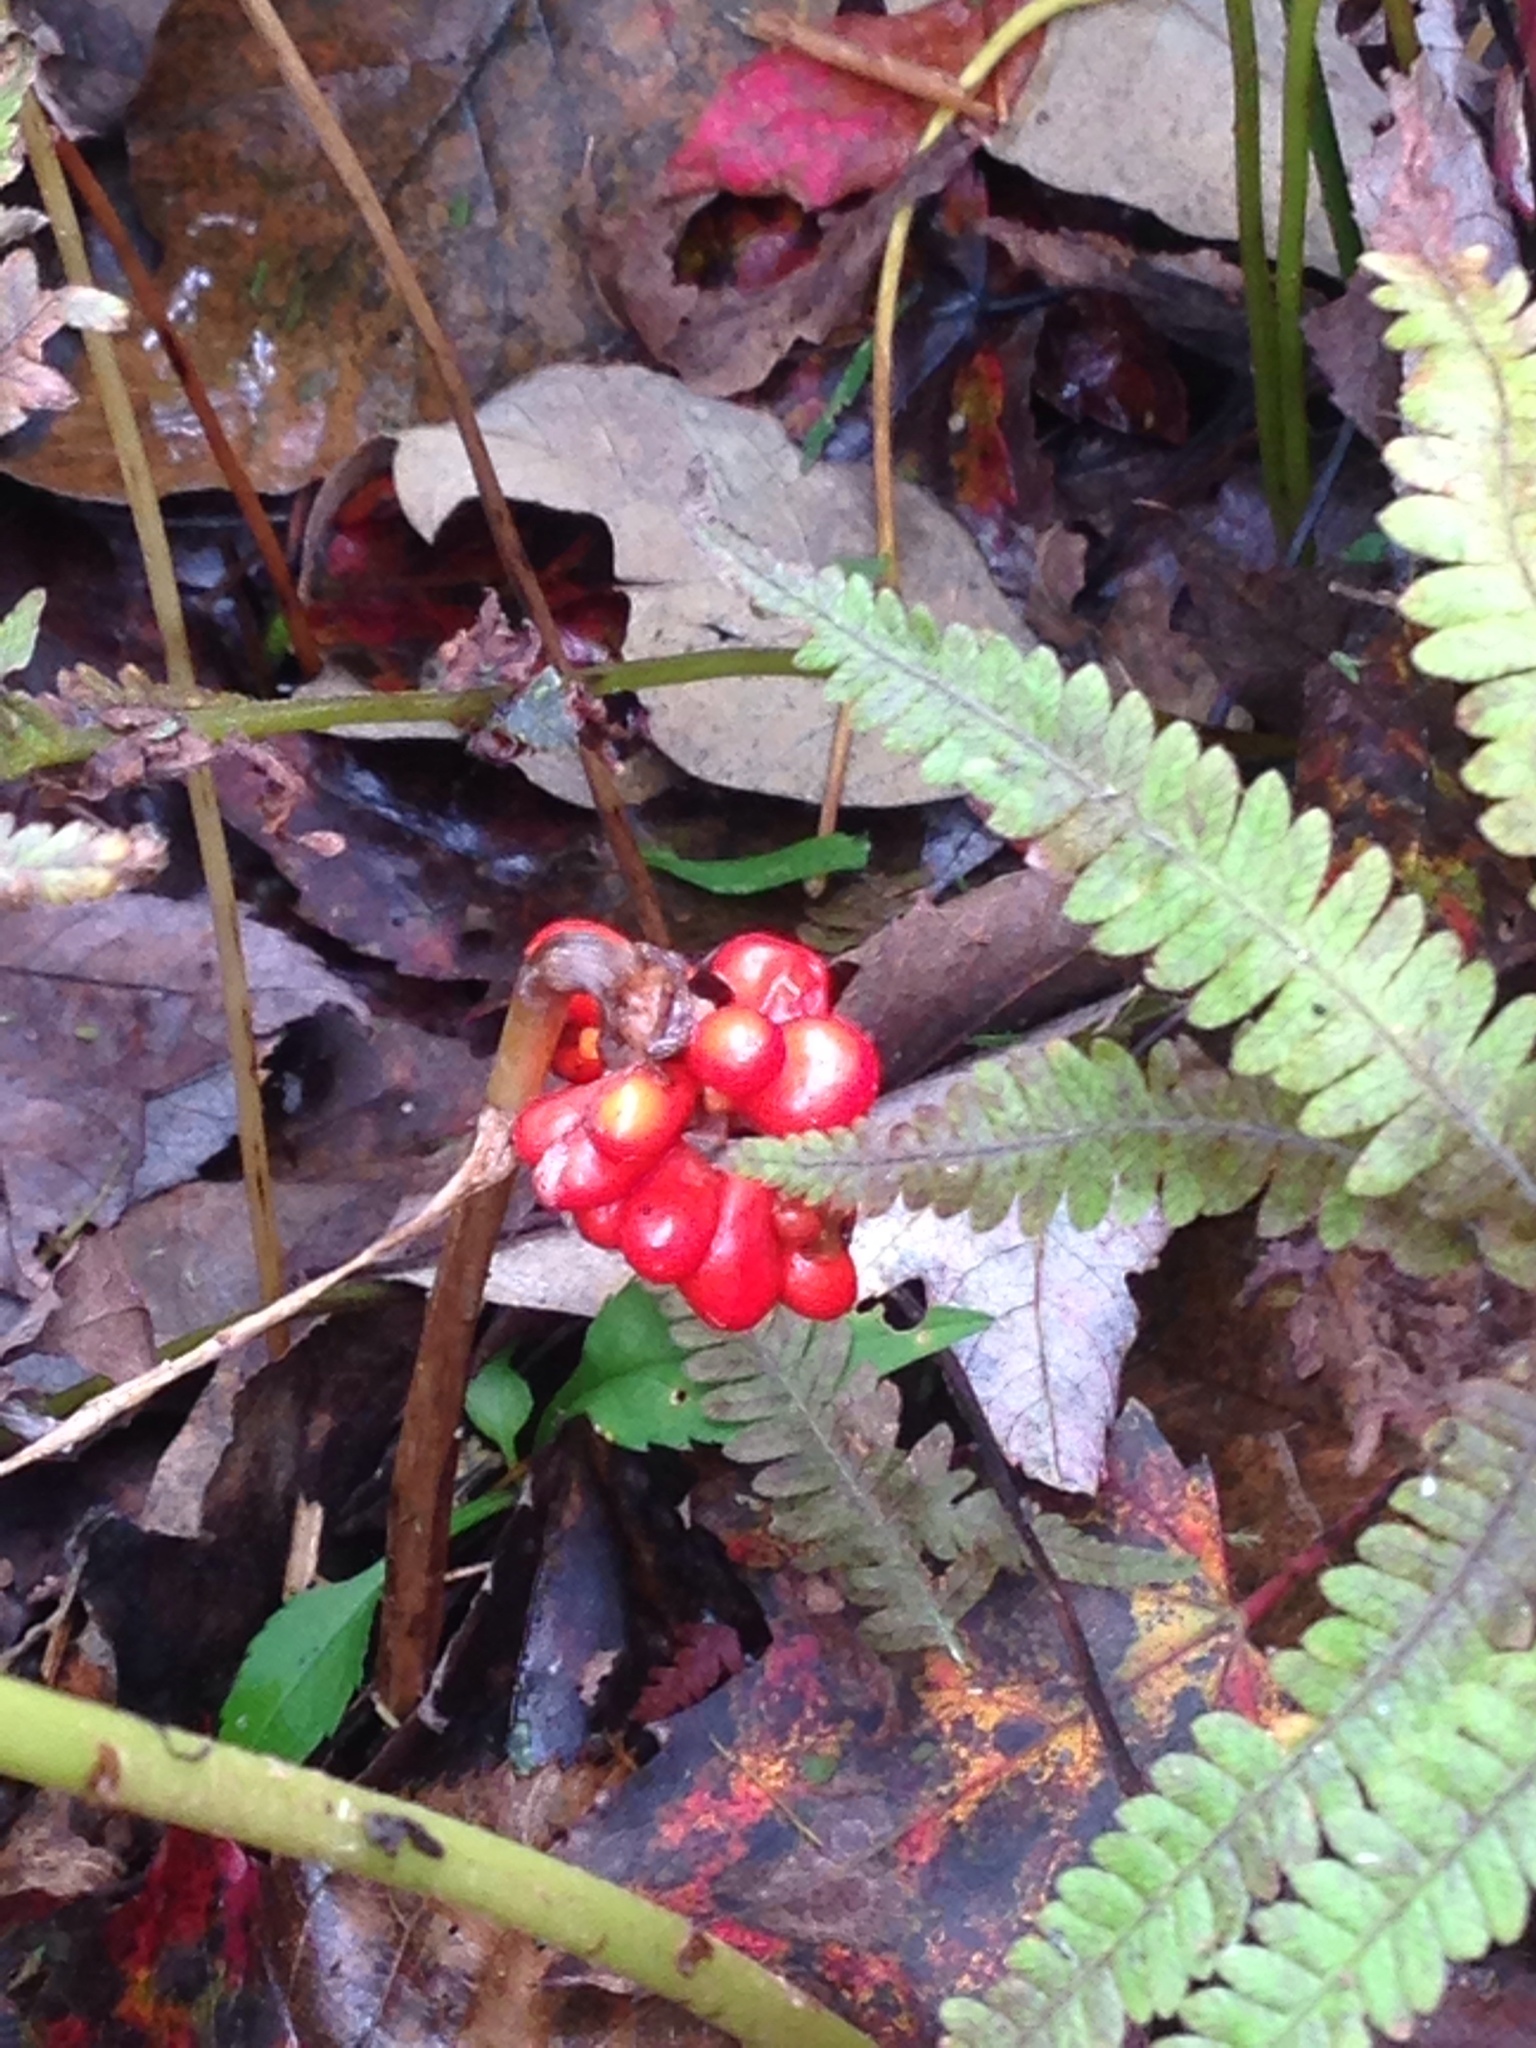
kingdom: Plantae
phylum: Tracheophyta
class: Liliopsida
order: Alismatales
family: Araceae
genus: Arisaema
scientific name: Arisaema triphyllum
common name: Jack-in-the-pulpit
